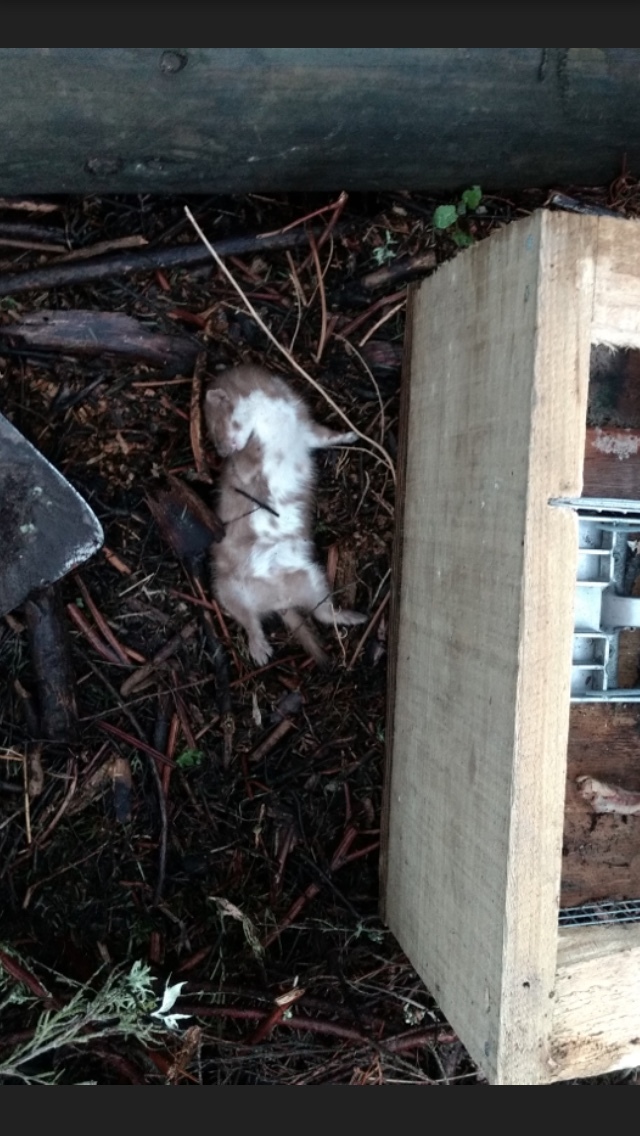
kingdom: Animalia
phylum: Chordata
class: Mammalia
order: Carnivora
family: Mustelidae
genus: Mustela
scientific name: Mustela erminea
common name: Stoat
